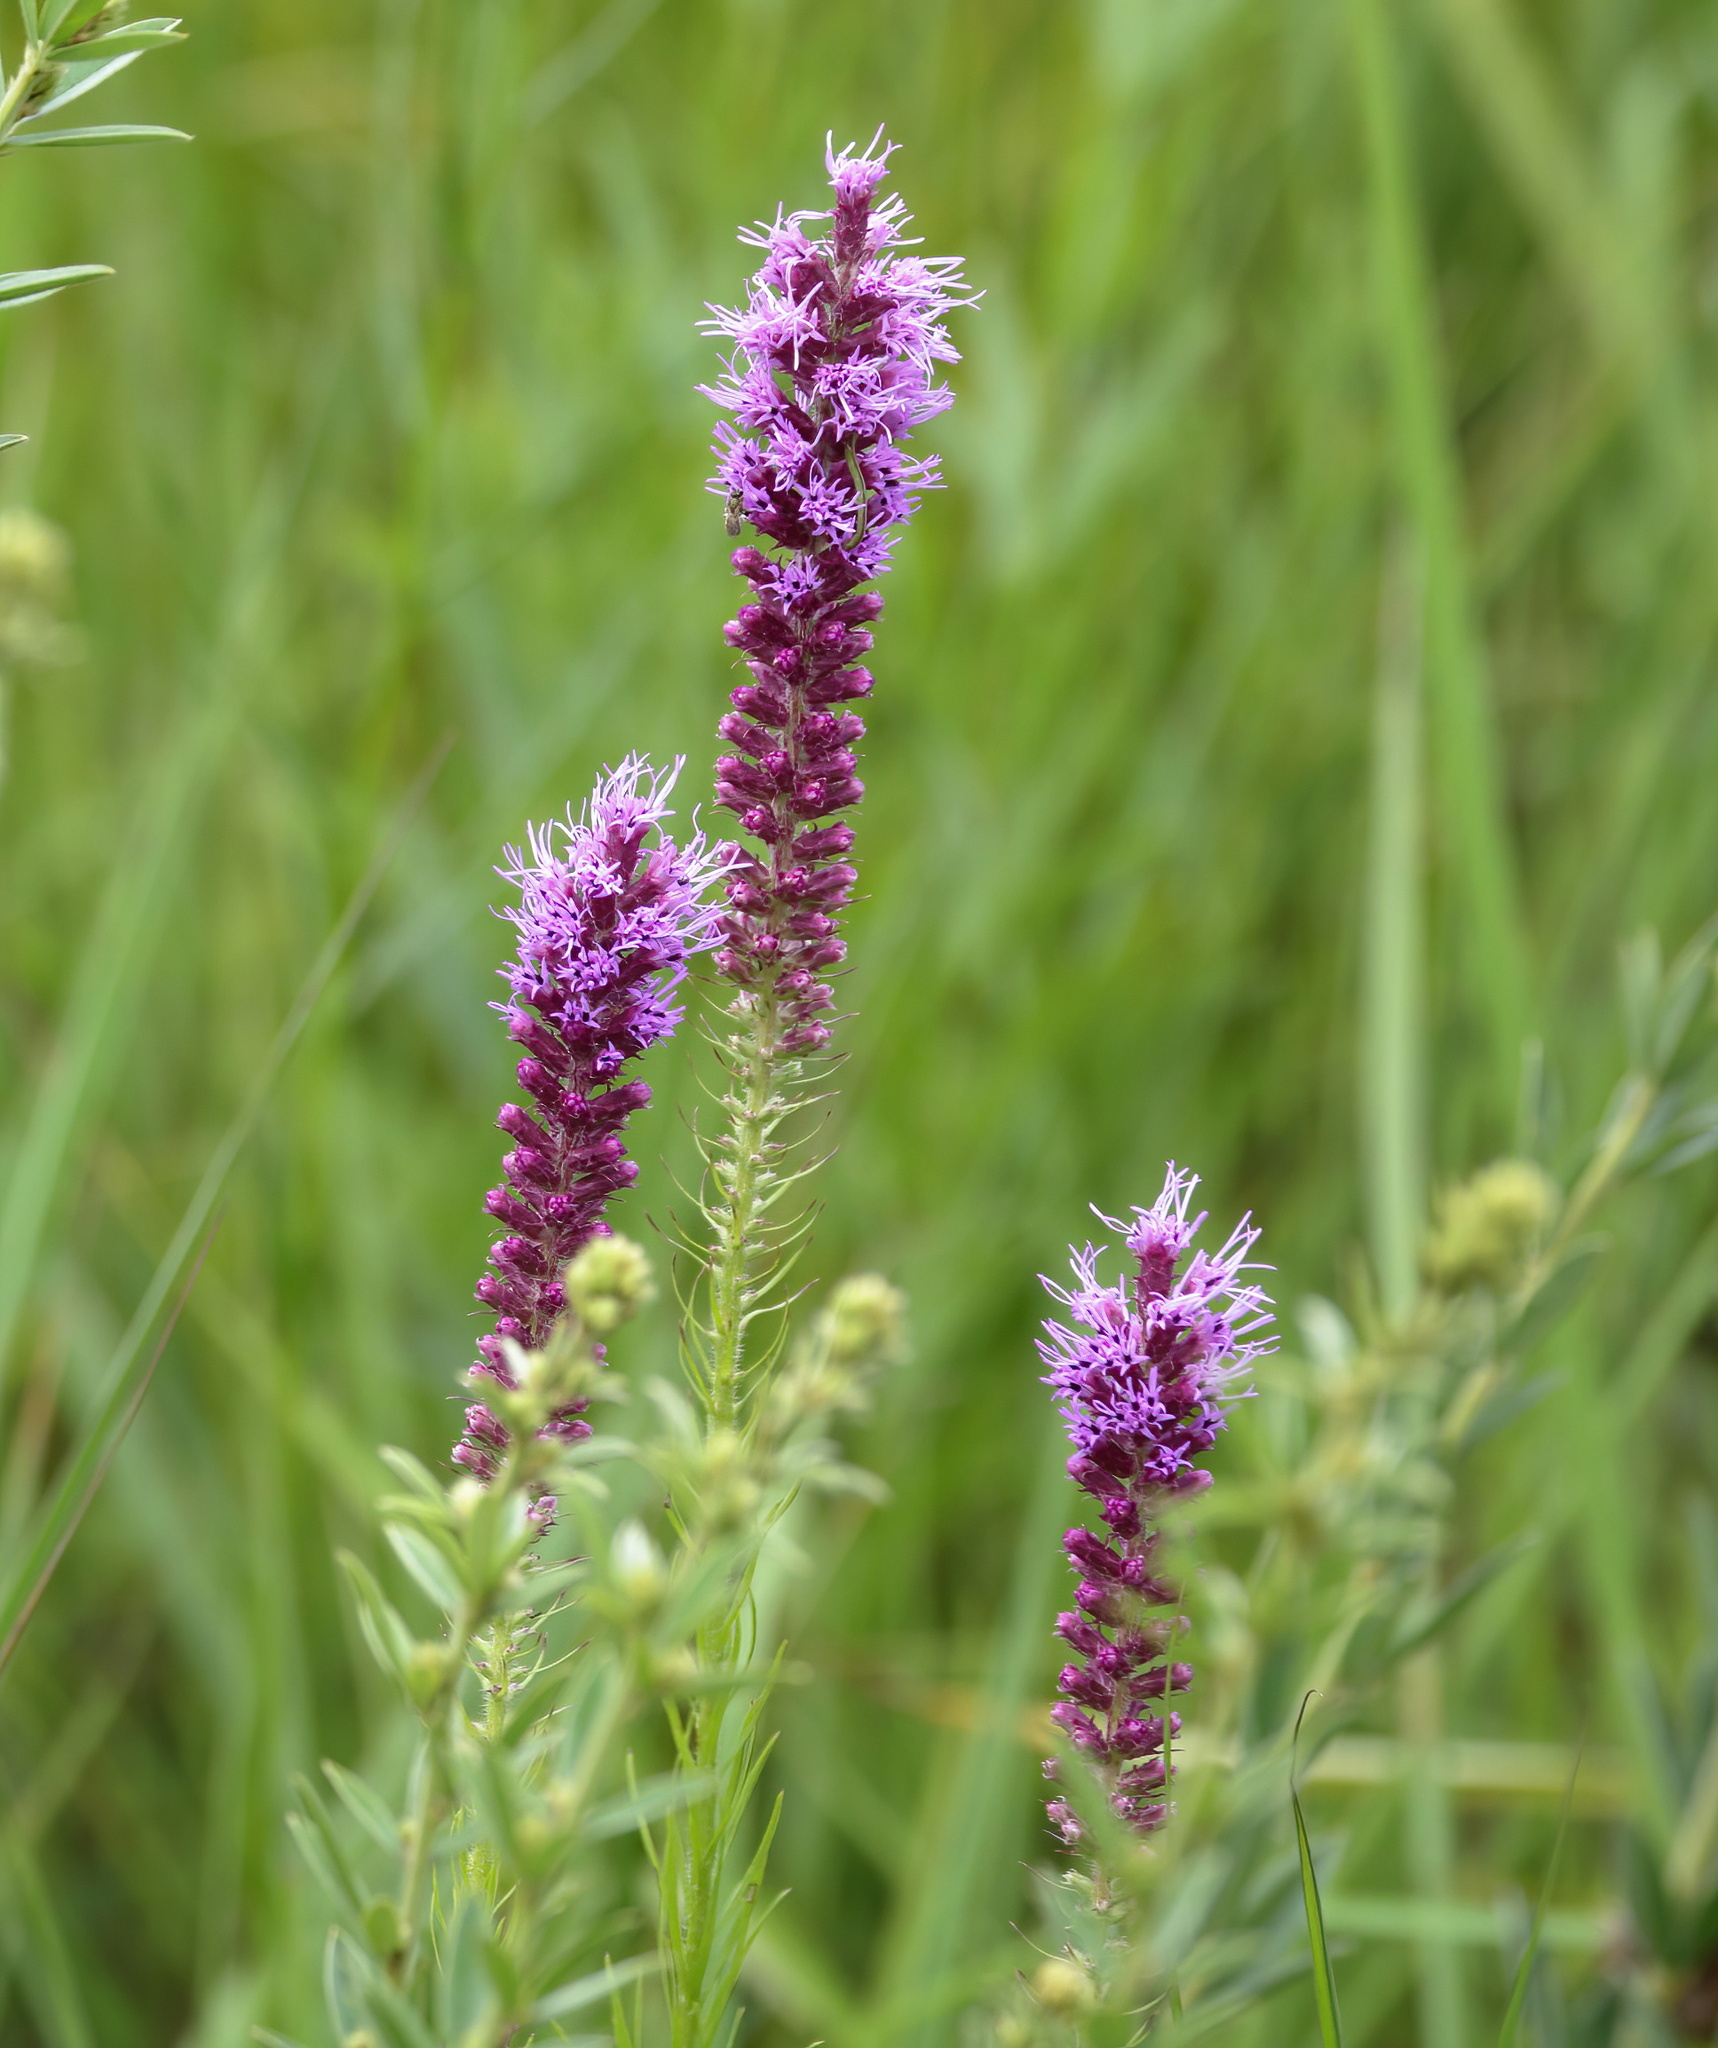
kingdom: Plantae
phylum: Tracheophyta
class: Magnoliopsida
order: Asterales
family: Asteraceae
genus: Liatris
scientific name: Liatris pycnostachya
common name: Cattail gayfeather
